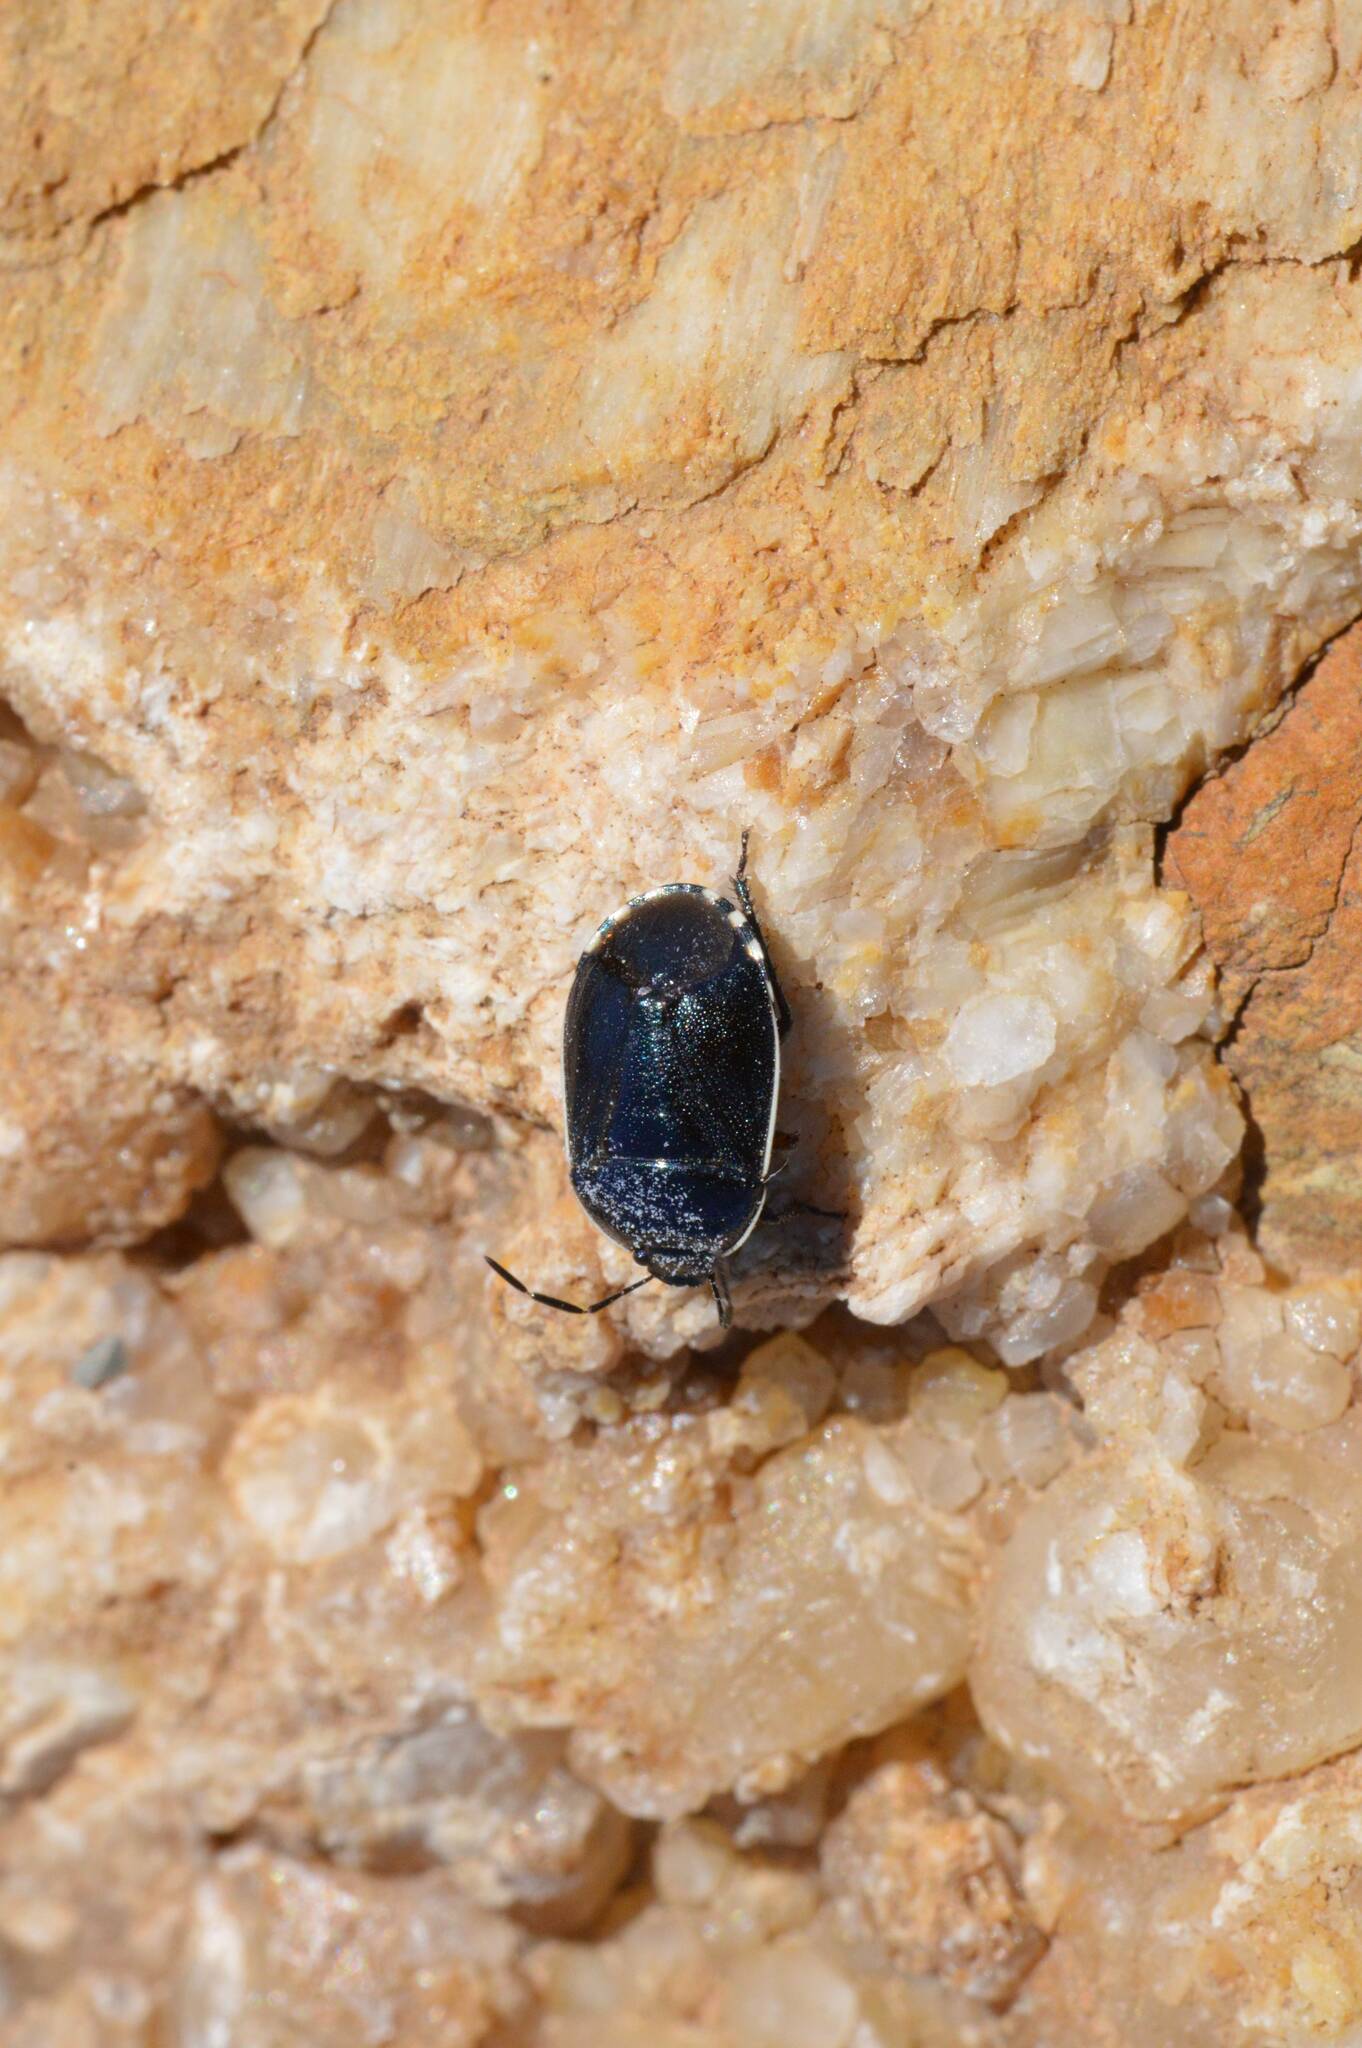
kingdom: Animalia
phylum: Arthropoda
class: Insecta
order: Hemiptera
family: Cydnidae
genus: Canthophorus
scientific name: Canthophorus melanopterus
